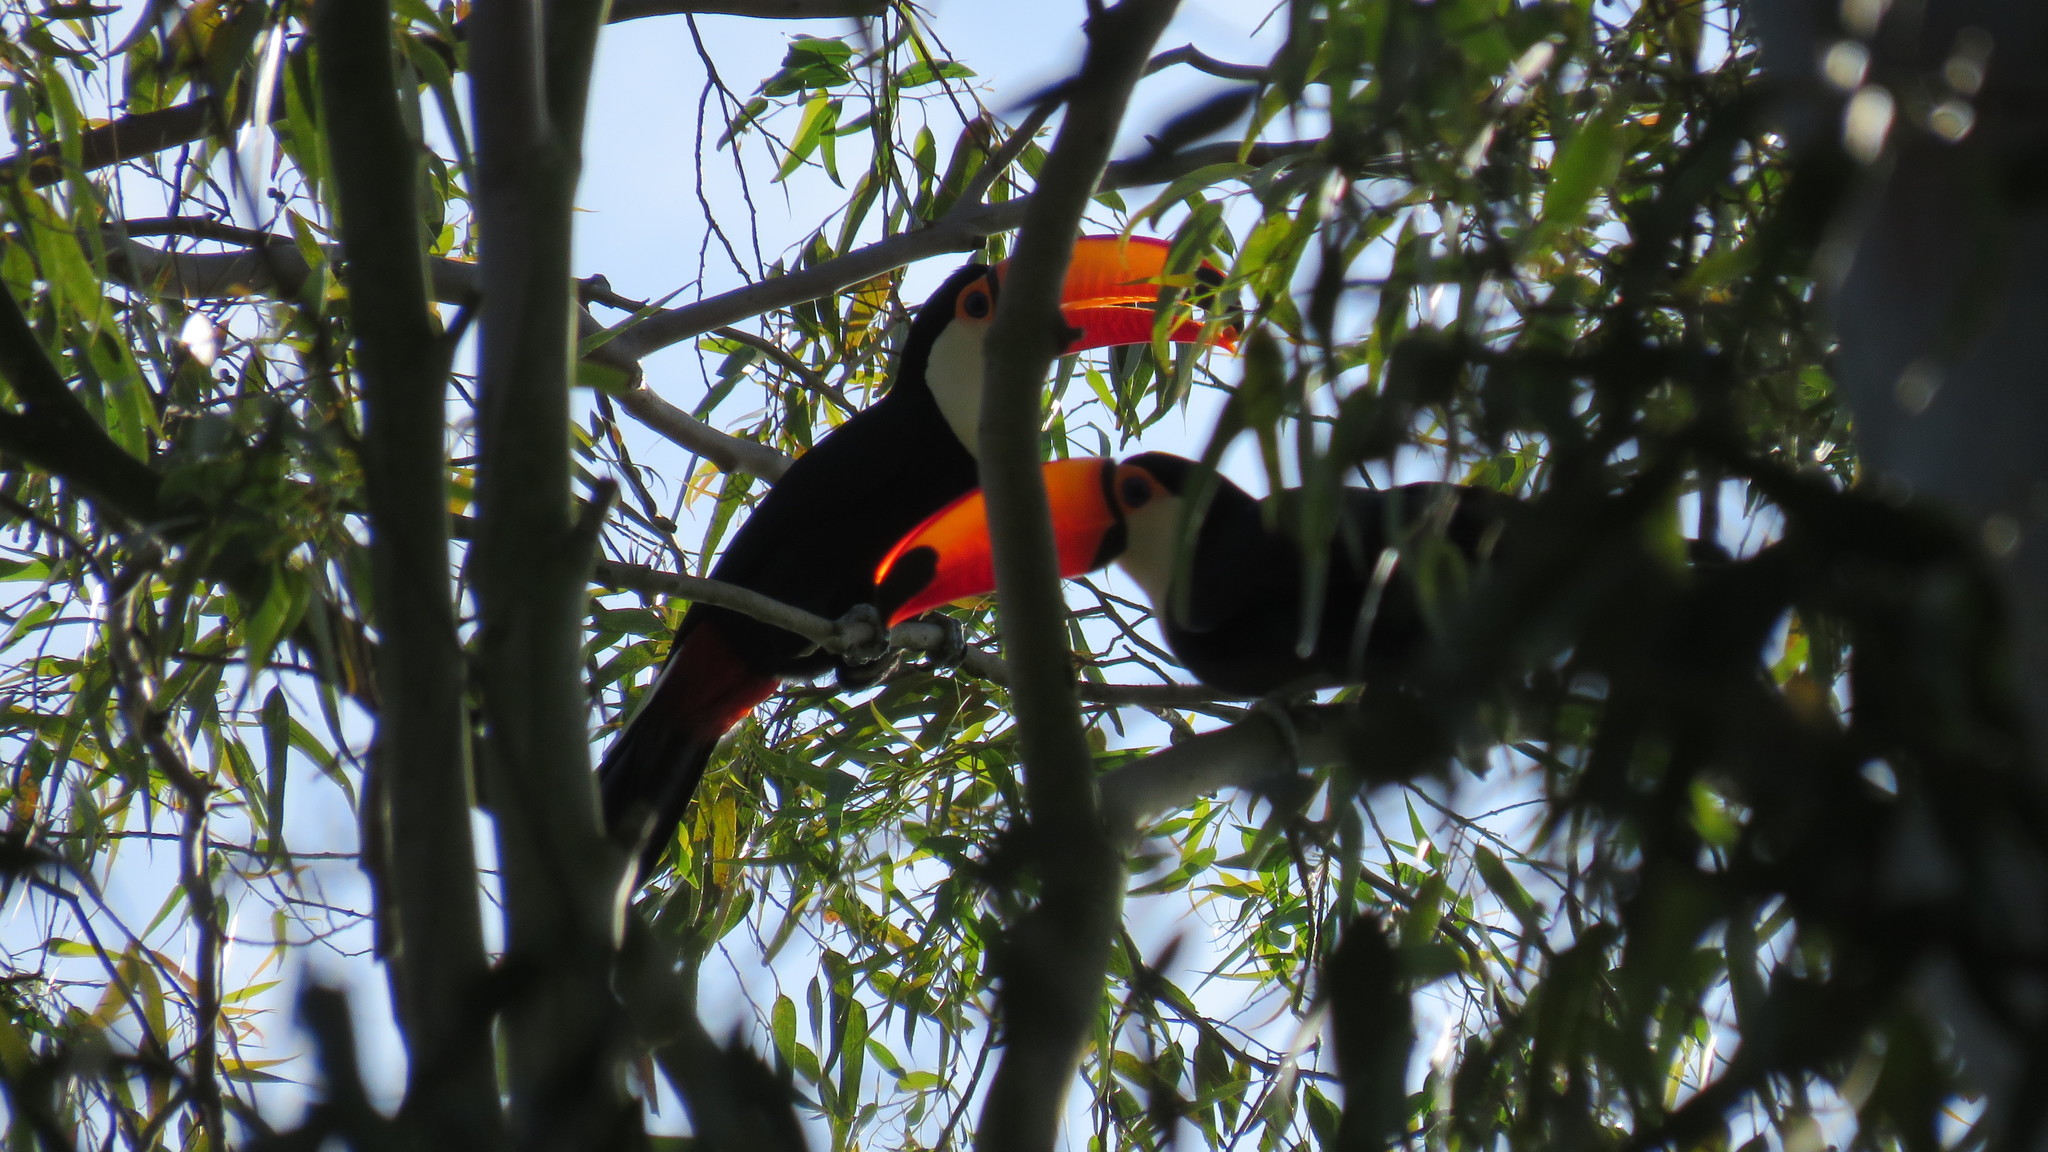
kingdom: Animalia
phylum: Chordata
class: Aves
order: Piciformes
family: Ramphastidae
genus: Ramphastos
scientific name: Ramphastos toco
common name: Toco toucan
